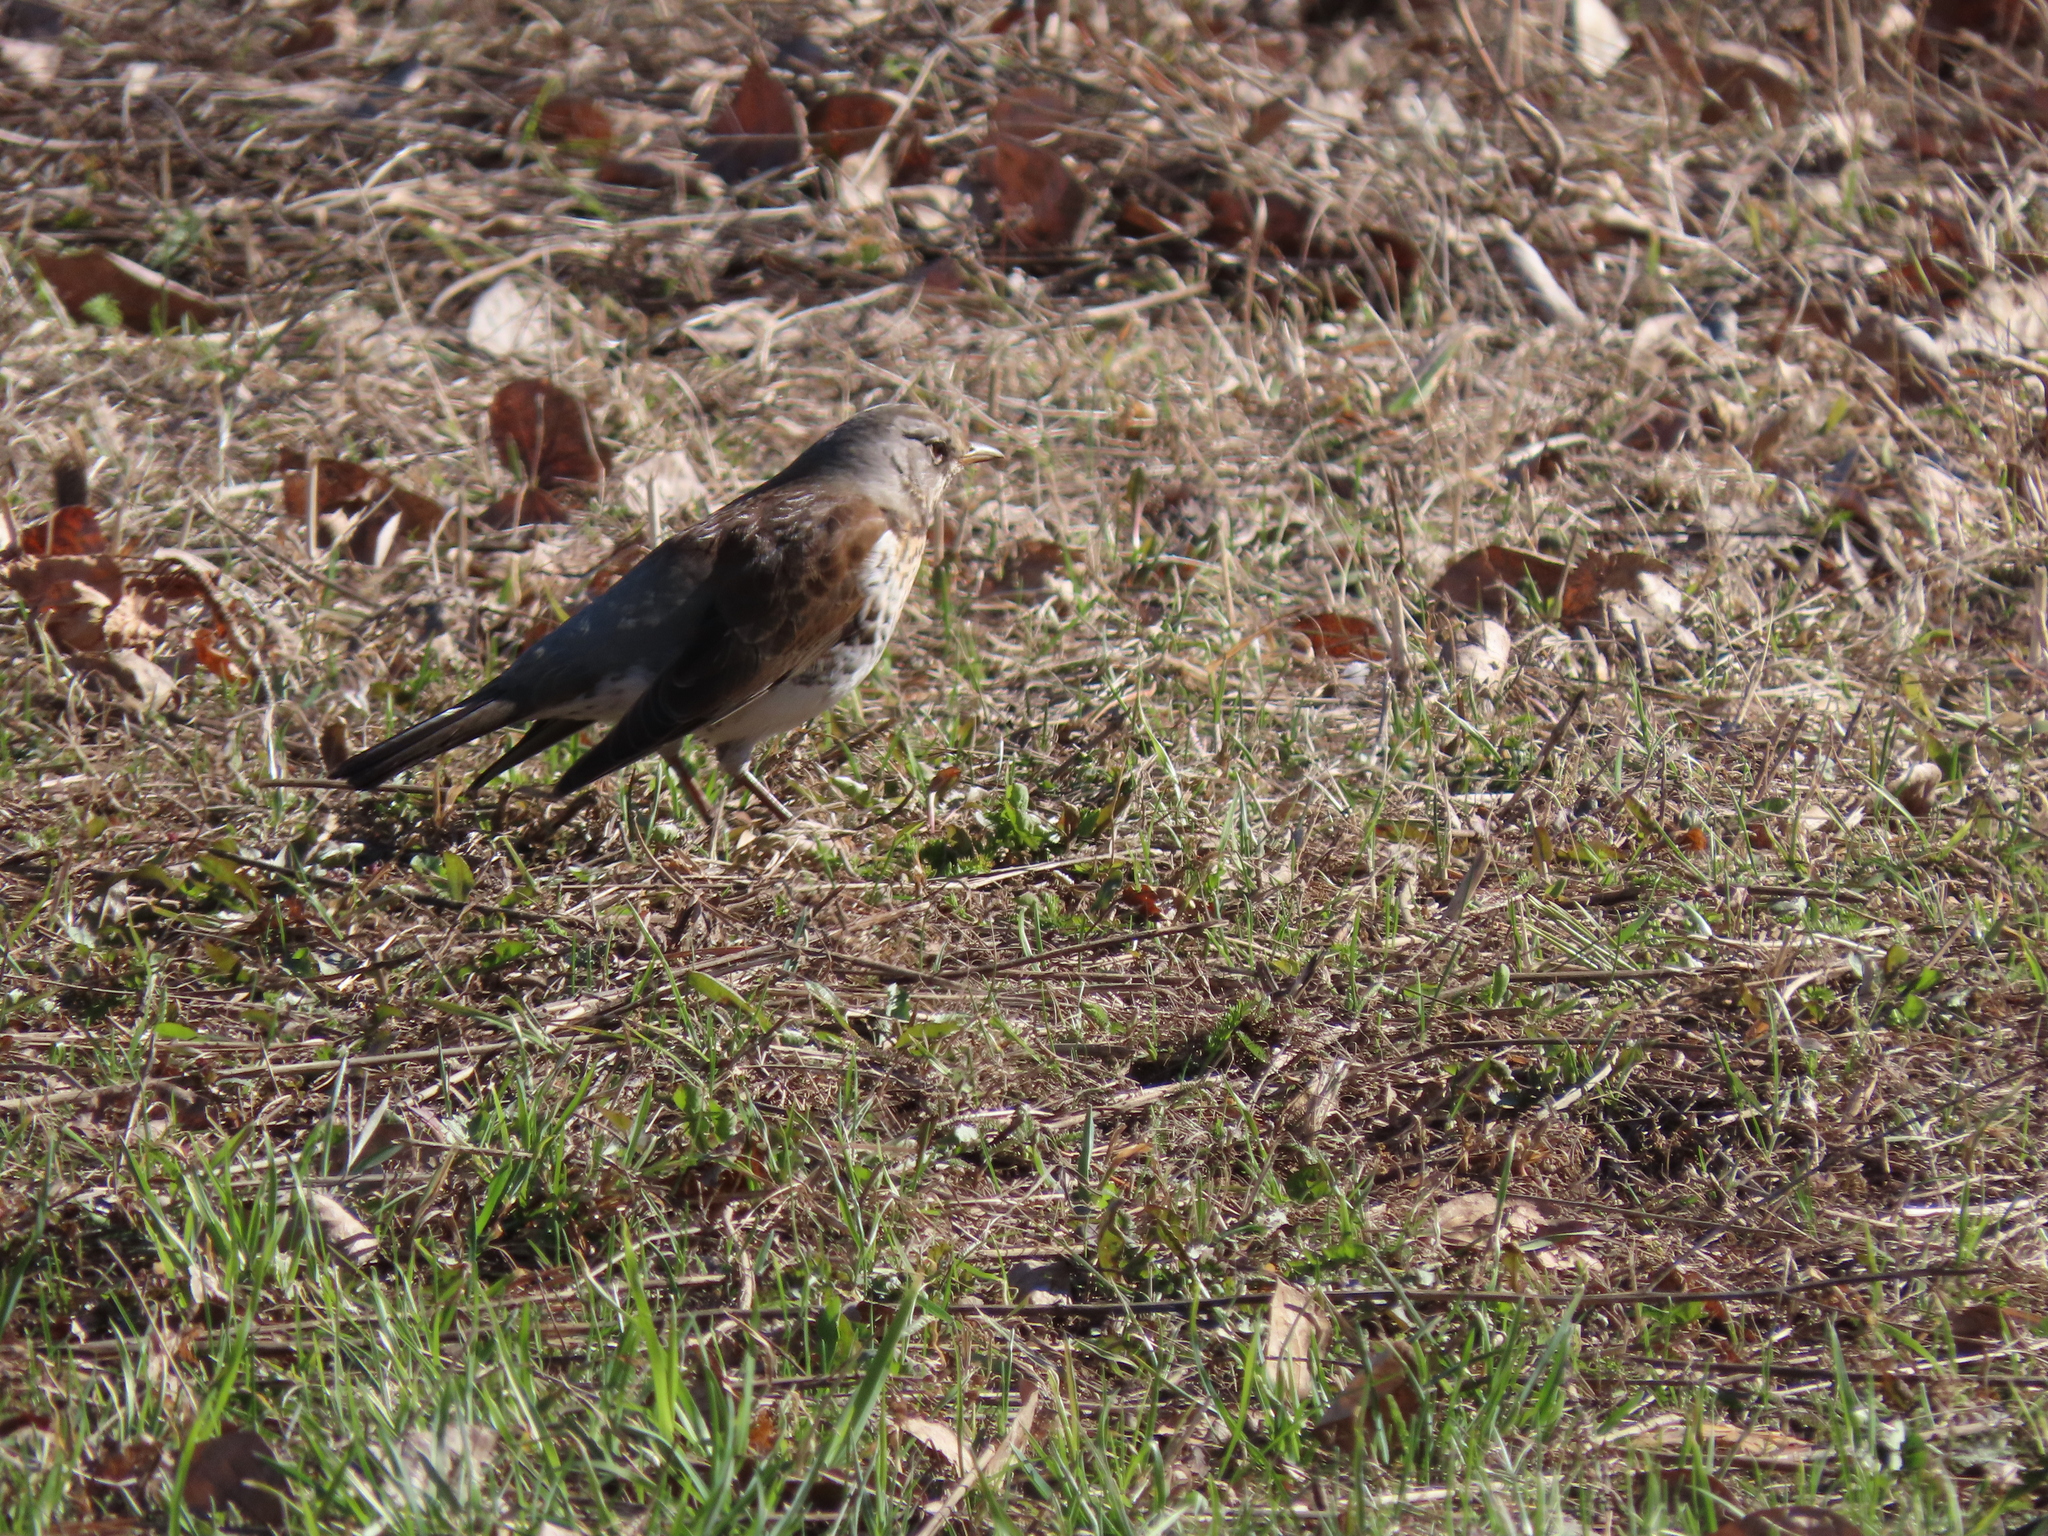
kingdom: Animalia
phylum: Chordata
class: Aves
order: Passeriformes
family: Turdidae
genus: Turdus
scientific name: Turdus pilaris
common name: Fieldfare
